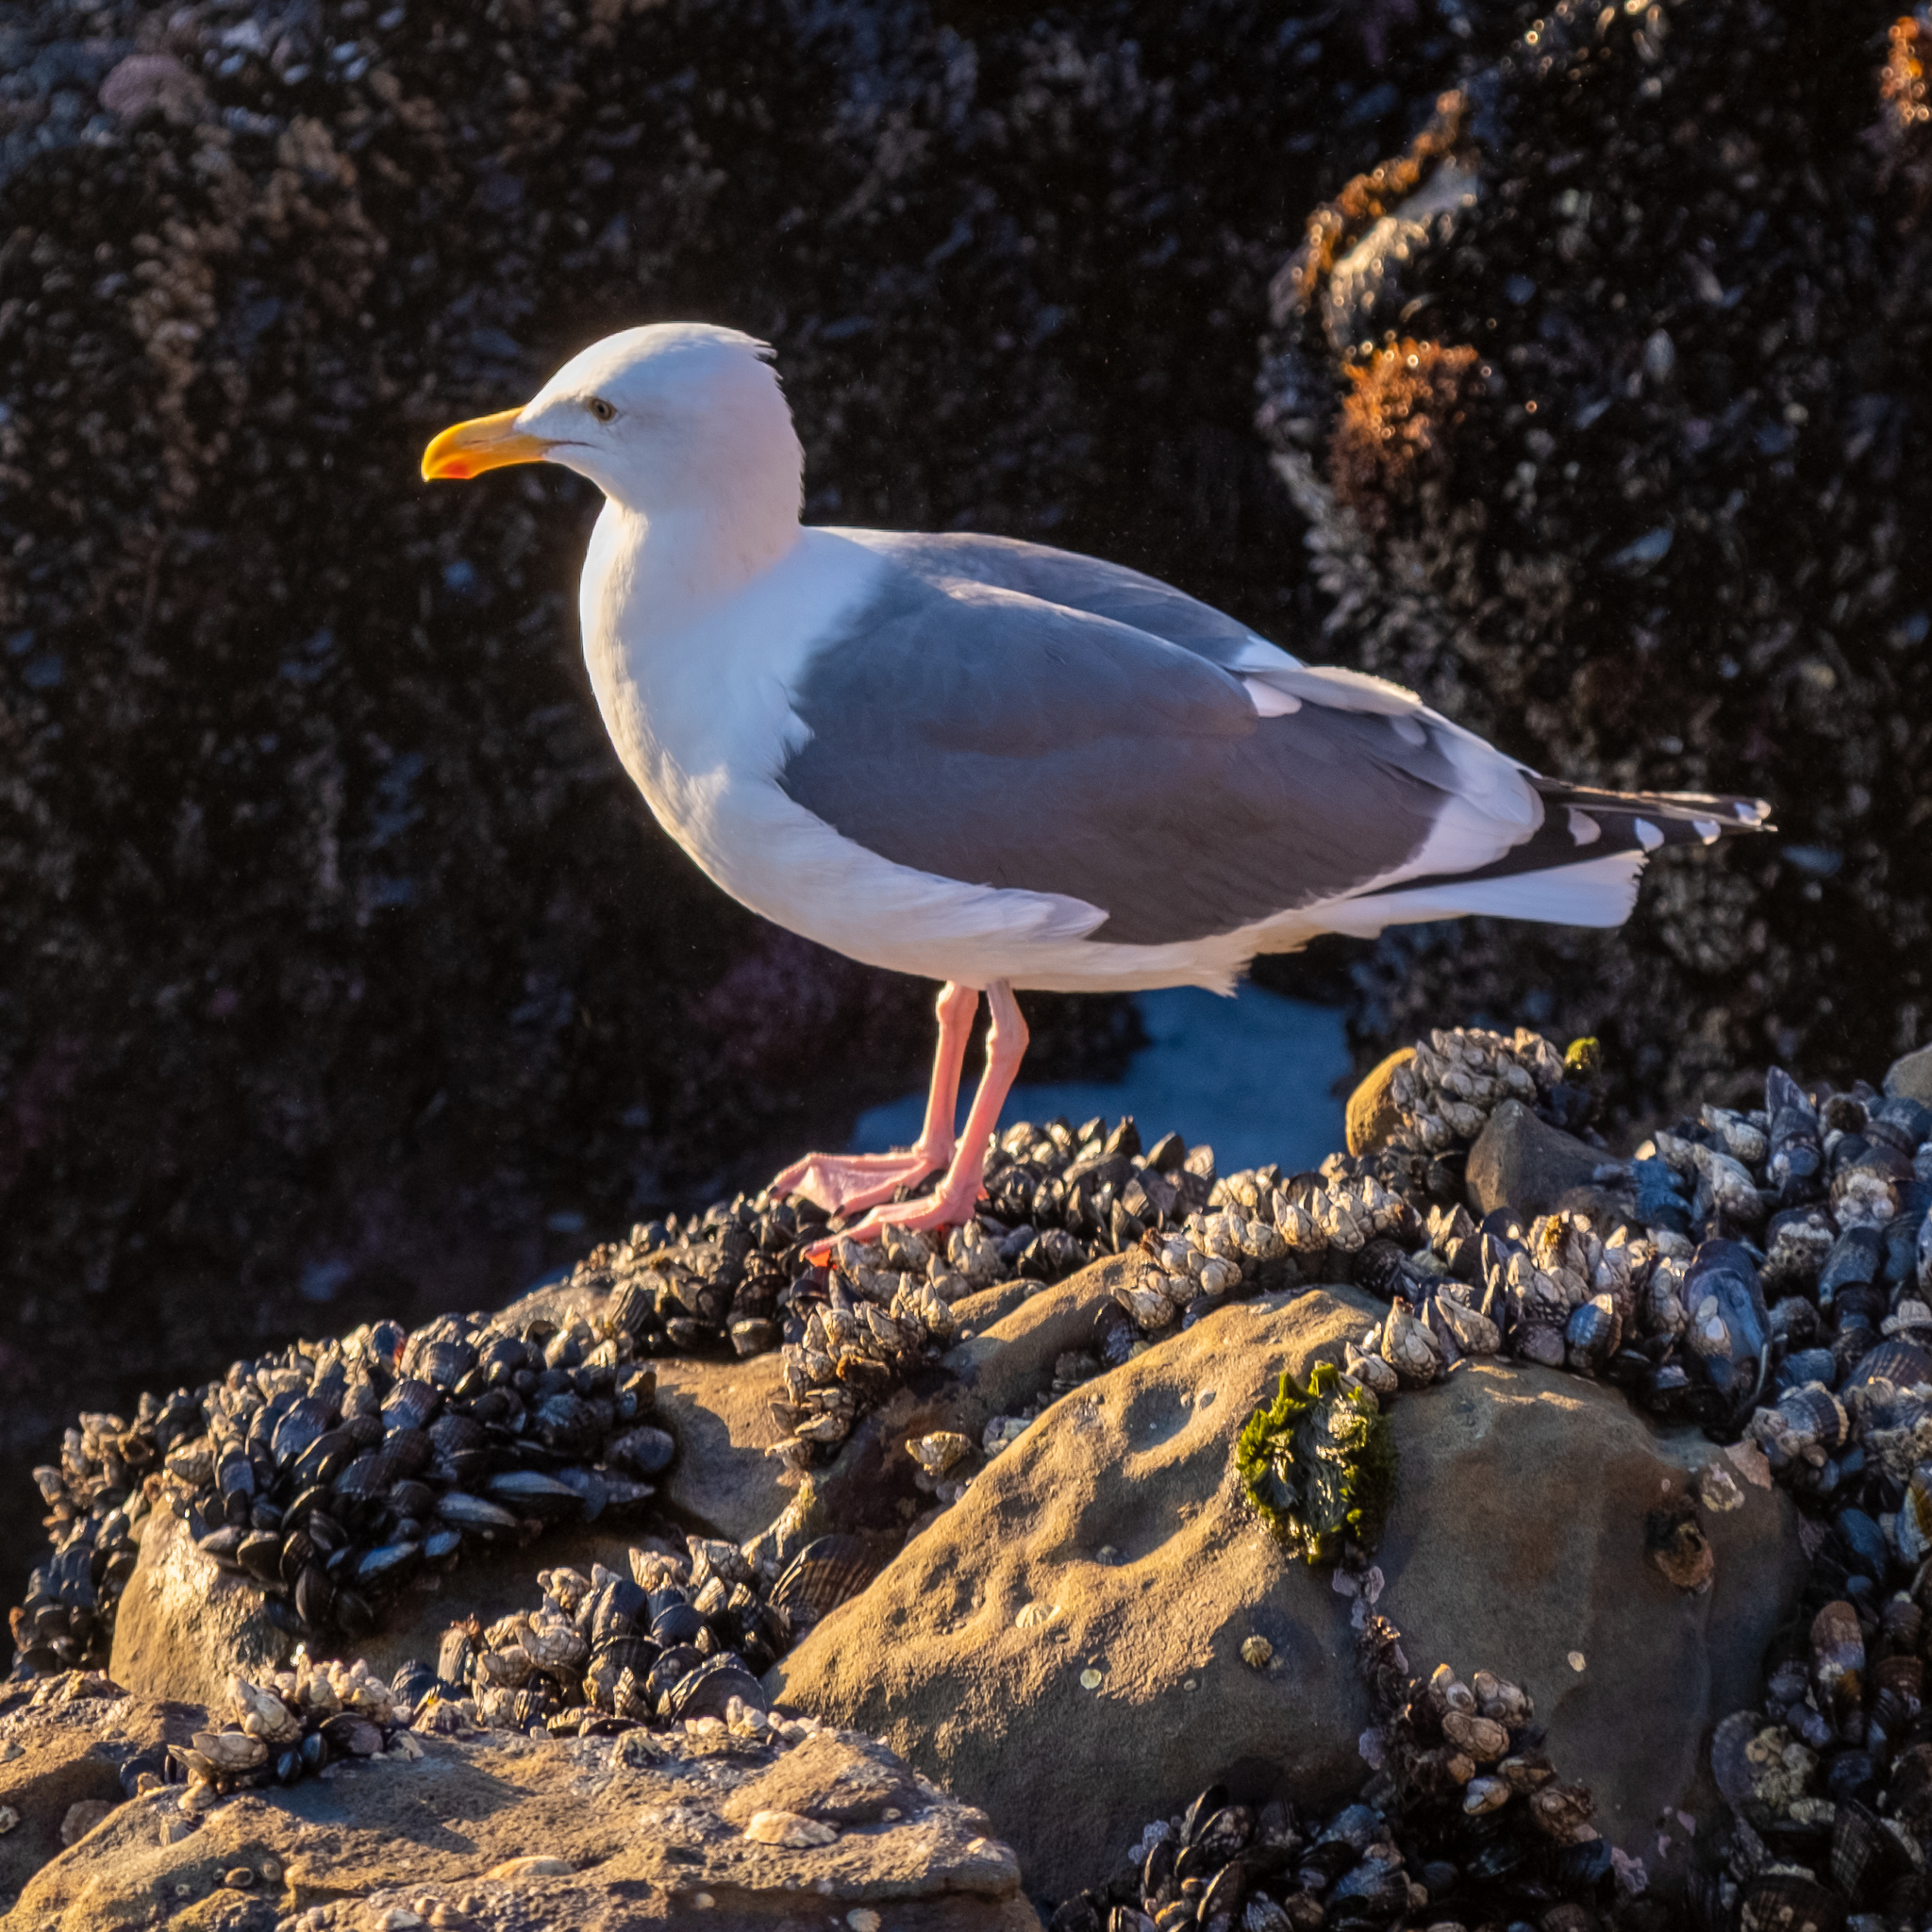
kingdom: Animalia
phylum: Chordata
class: Aves
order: Charadriiformes
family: Laridae
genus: Larus
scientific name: Larus occidentalis
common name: Western gull
